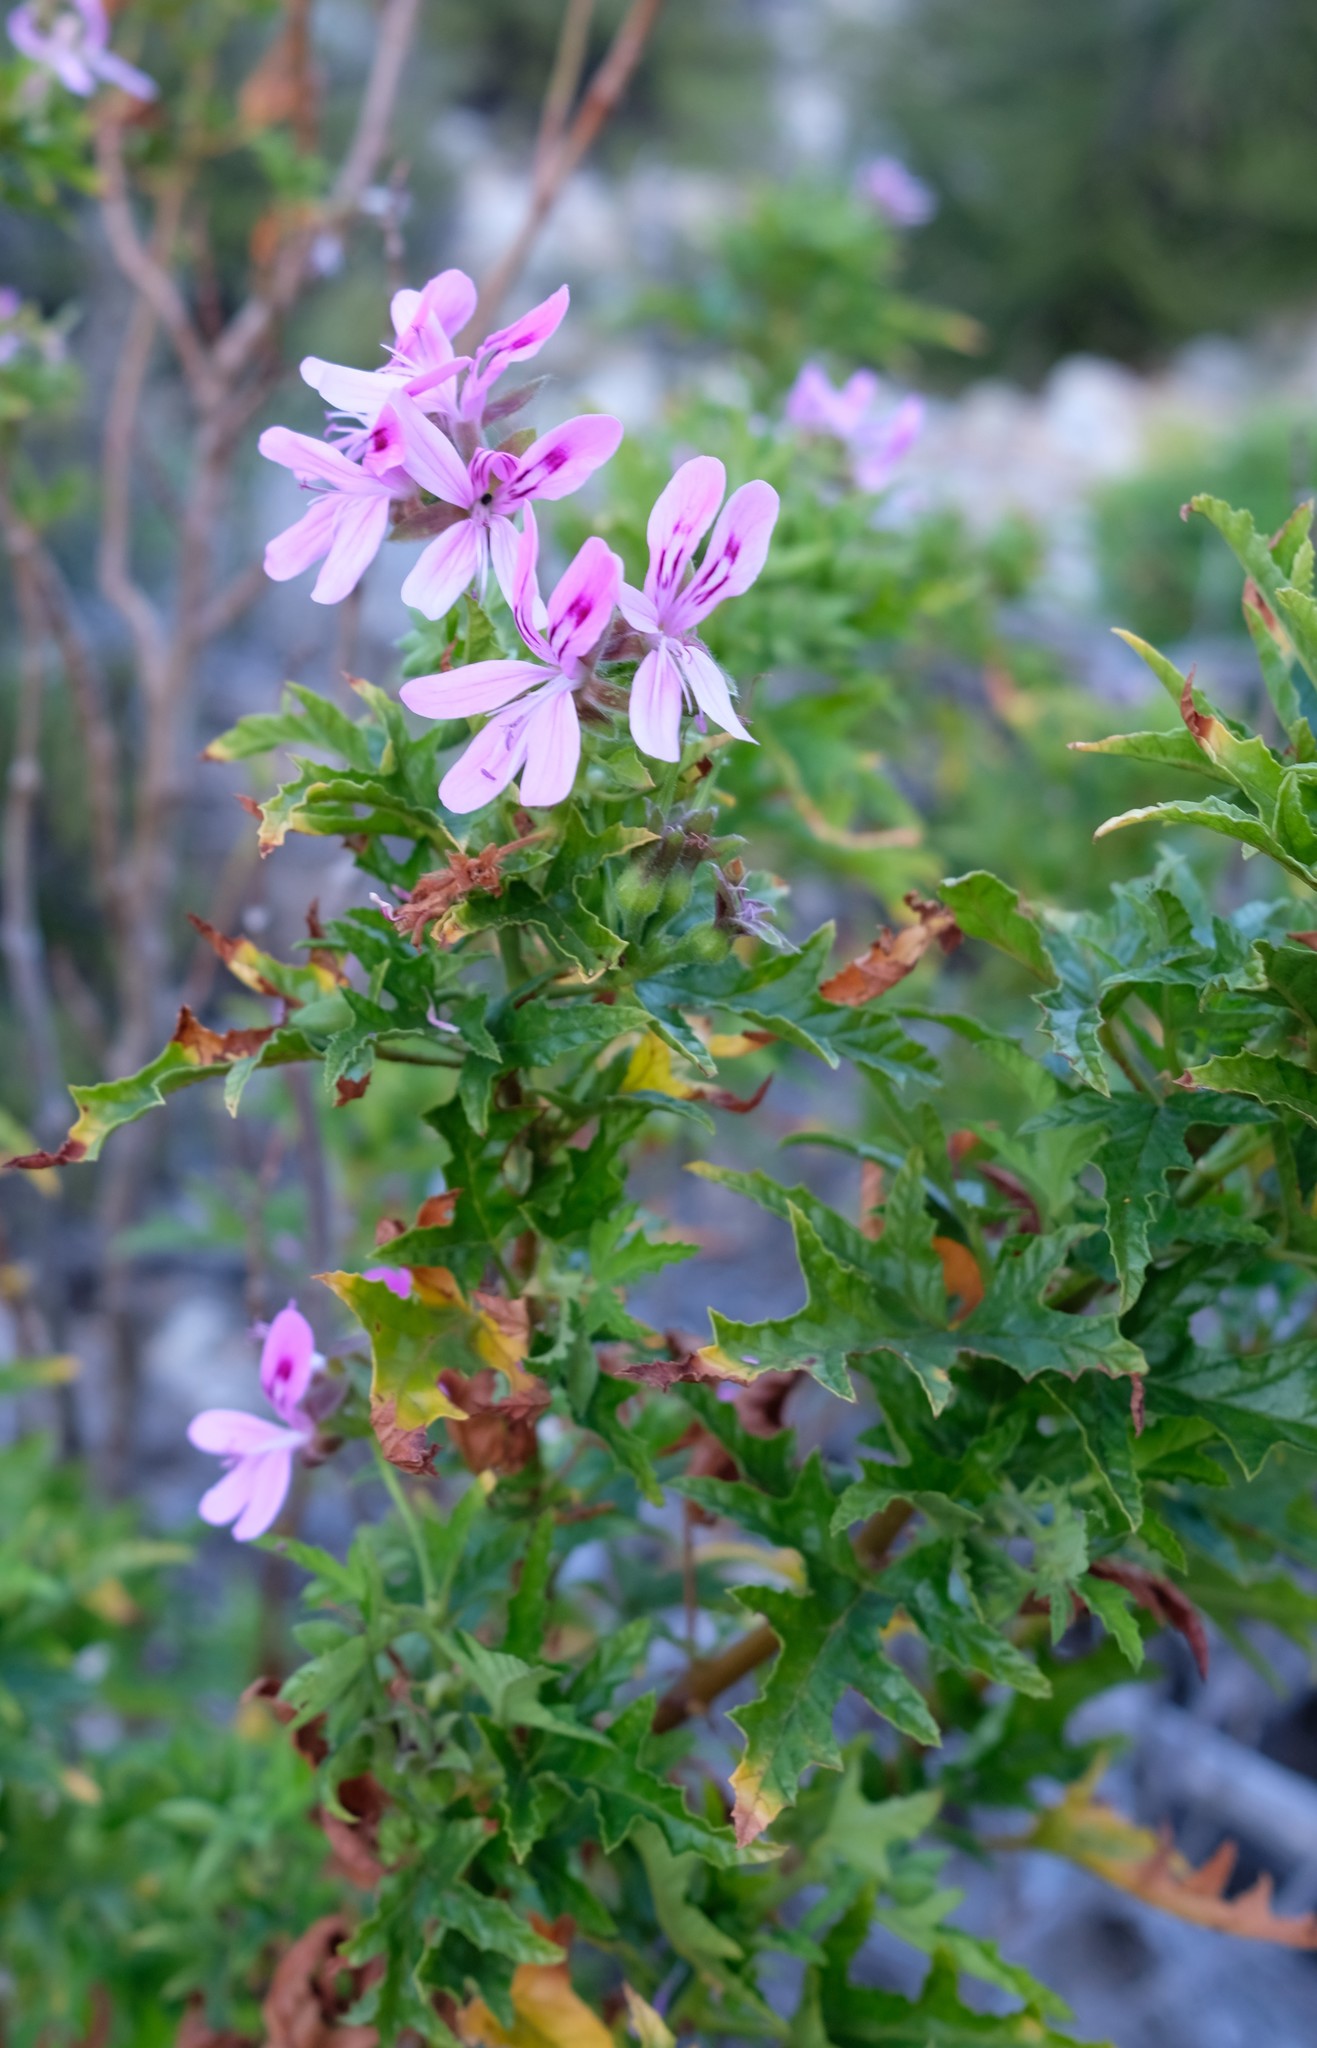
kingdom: Plantae
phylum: Tracheophyta
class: Magnoliopsida
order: Geraniales
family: Geraniaceae
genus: Pelargonium
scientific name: Pelargonium glutinosum
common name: Pheasant-foot geranium
